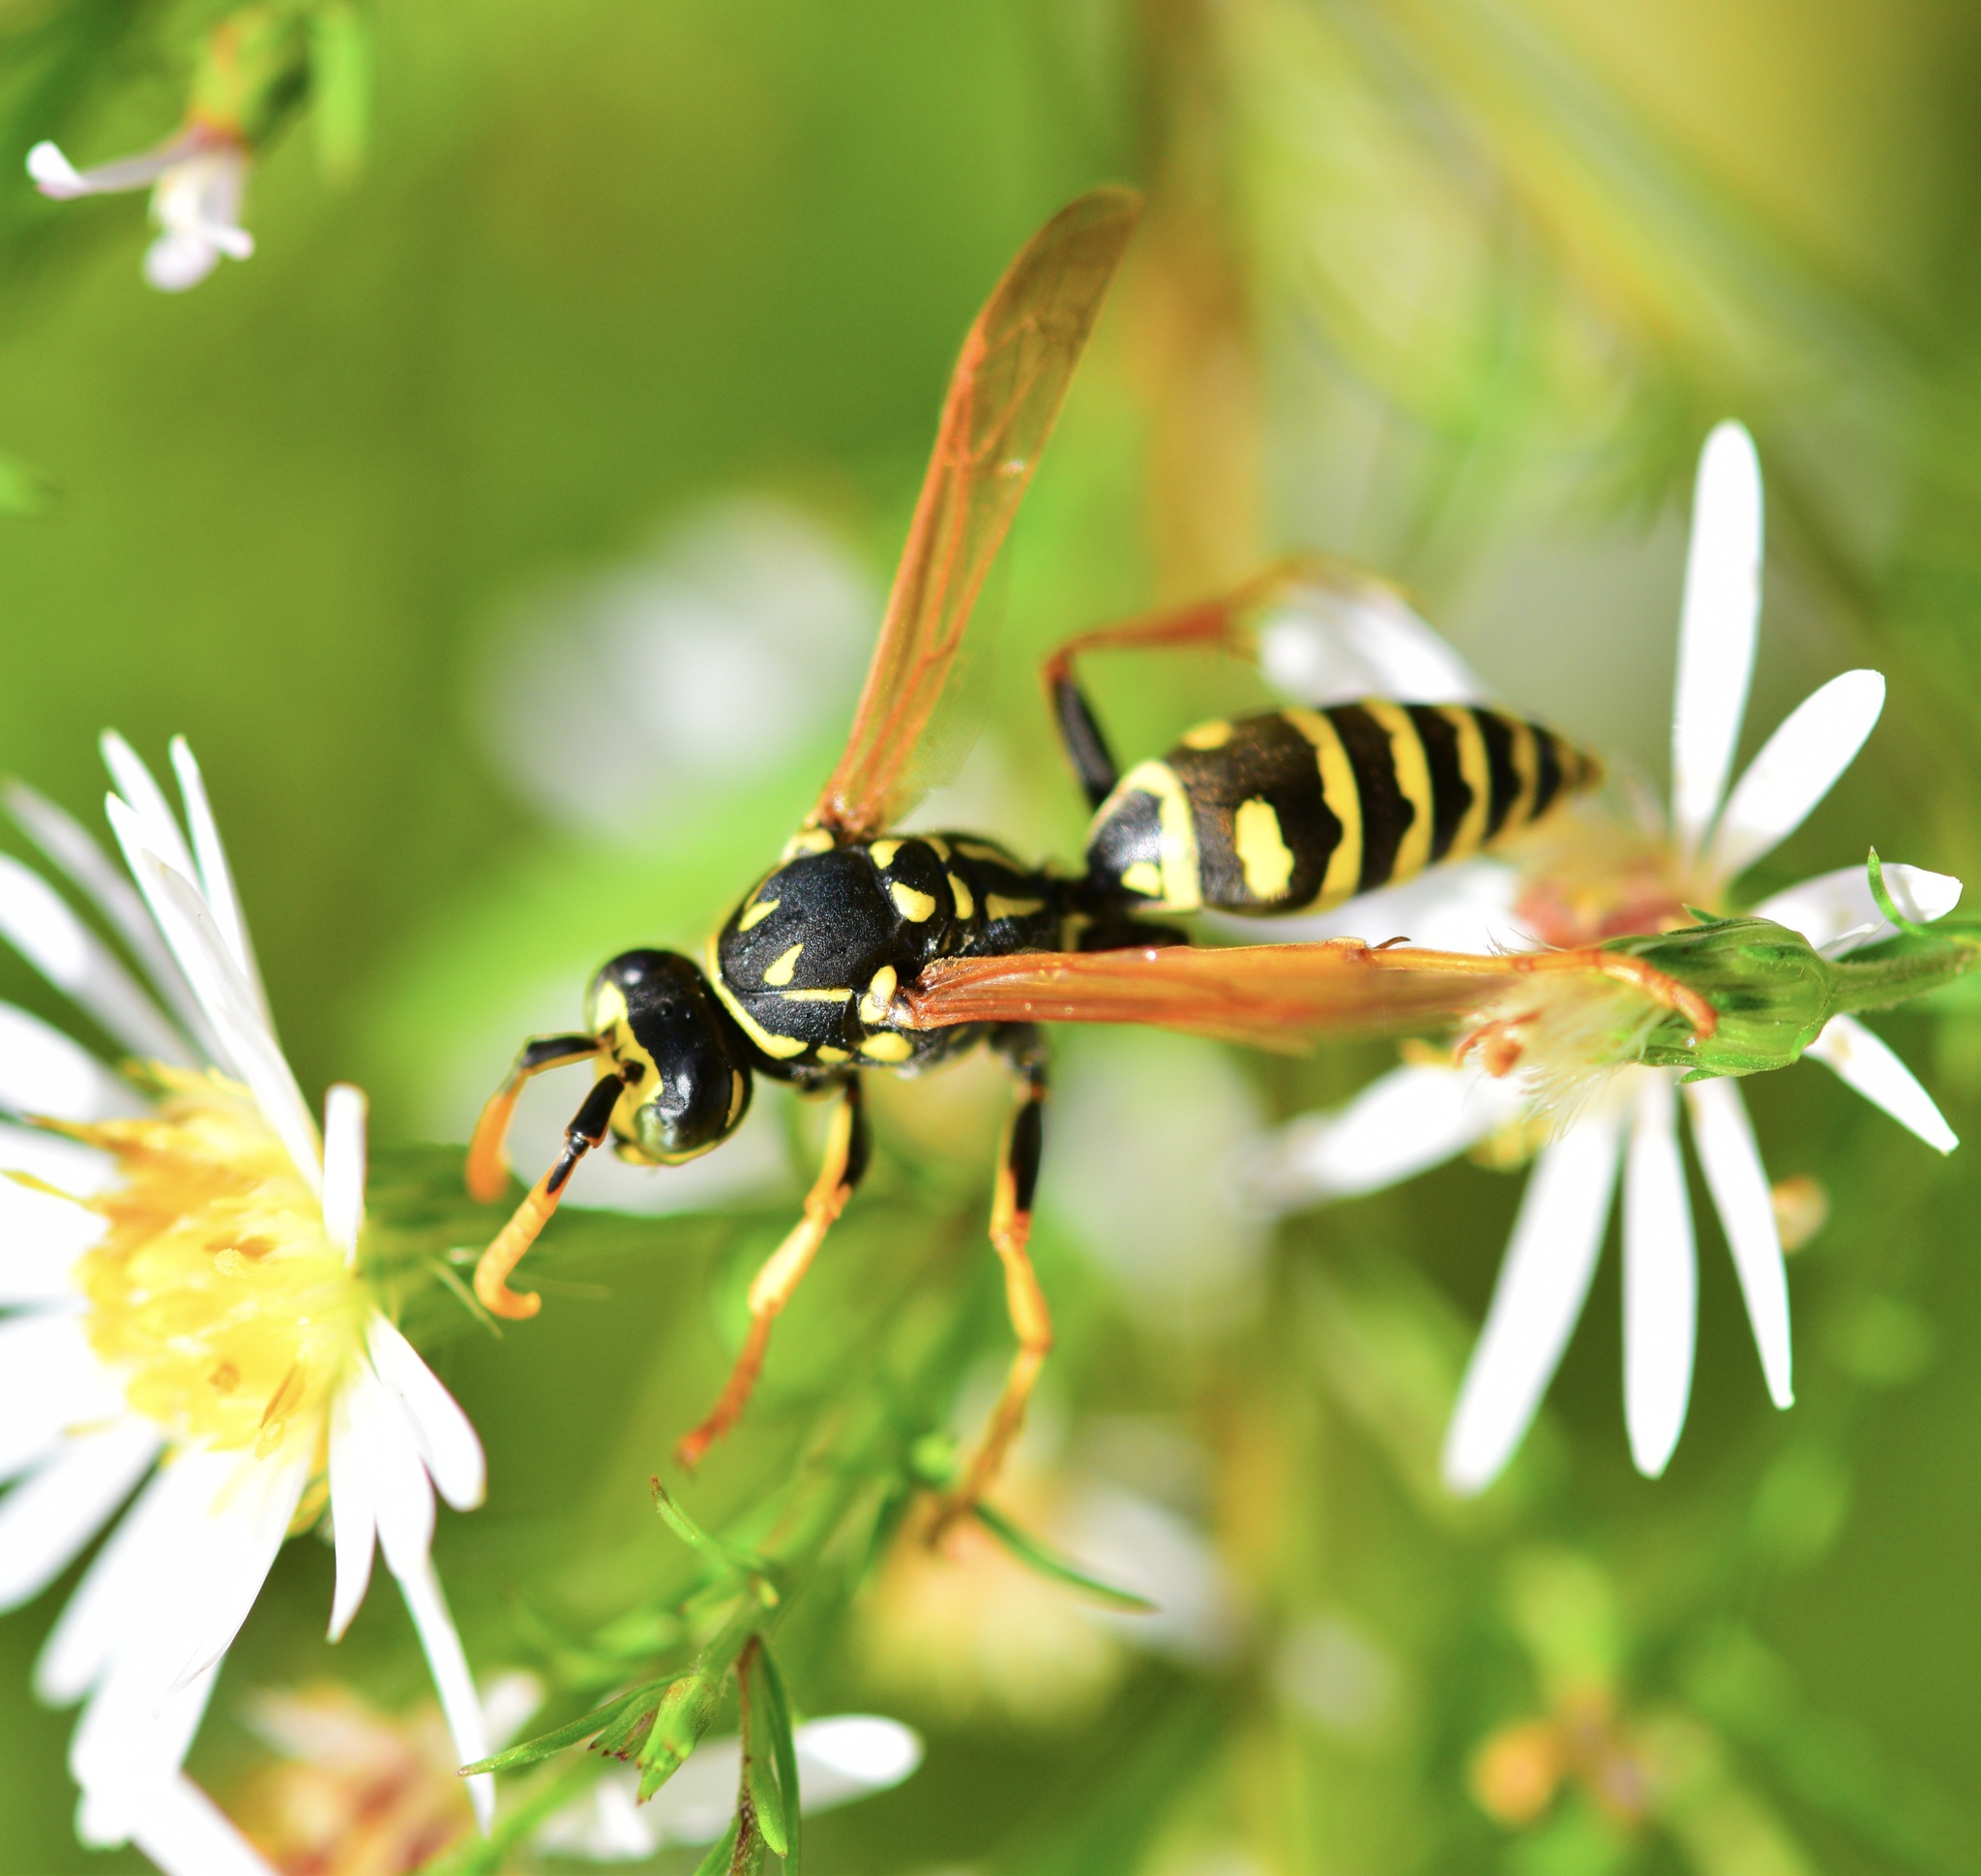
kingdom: Animalia
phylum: Arthropoda
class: Insecta
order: Hymenoptera
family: Eumenidae
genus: Polistes
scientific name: Polistes dominula
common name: Paper wasp
